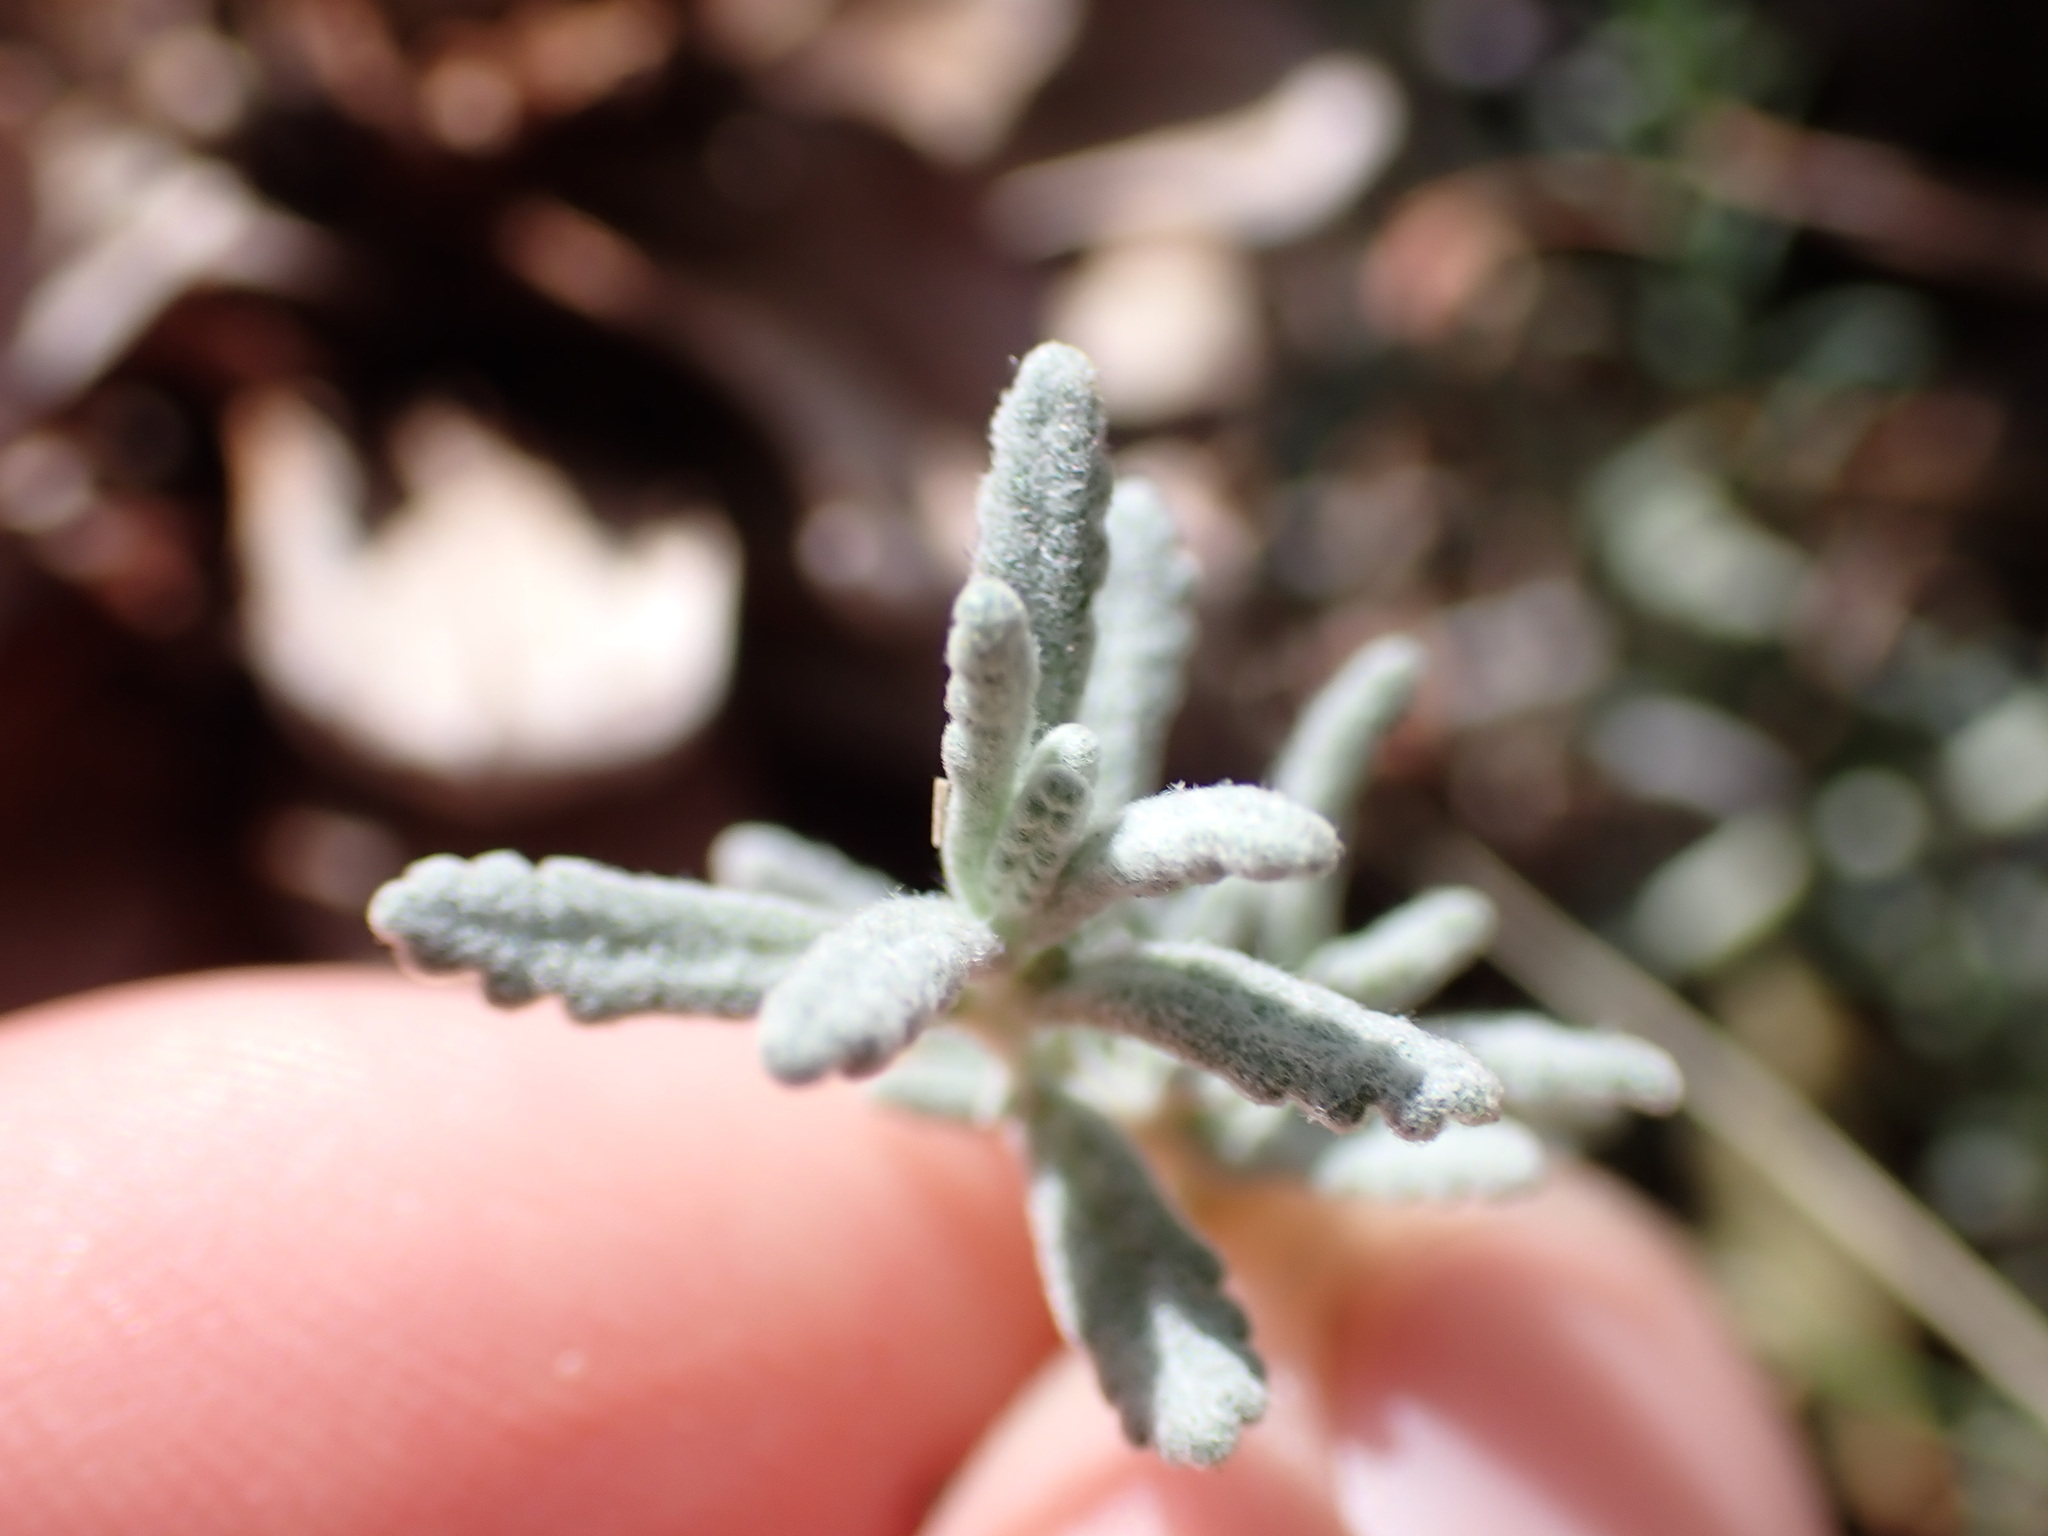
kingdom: Plantae
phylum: Tracheophyta
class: Magnoliopsida
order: Lamiales
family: Lamiaceae
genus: Teucrium
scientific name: Teucrium polium
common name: Poley
